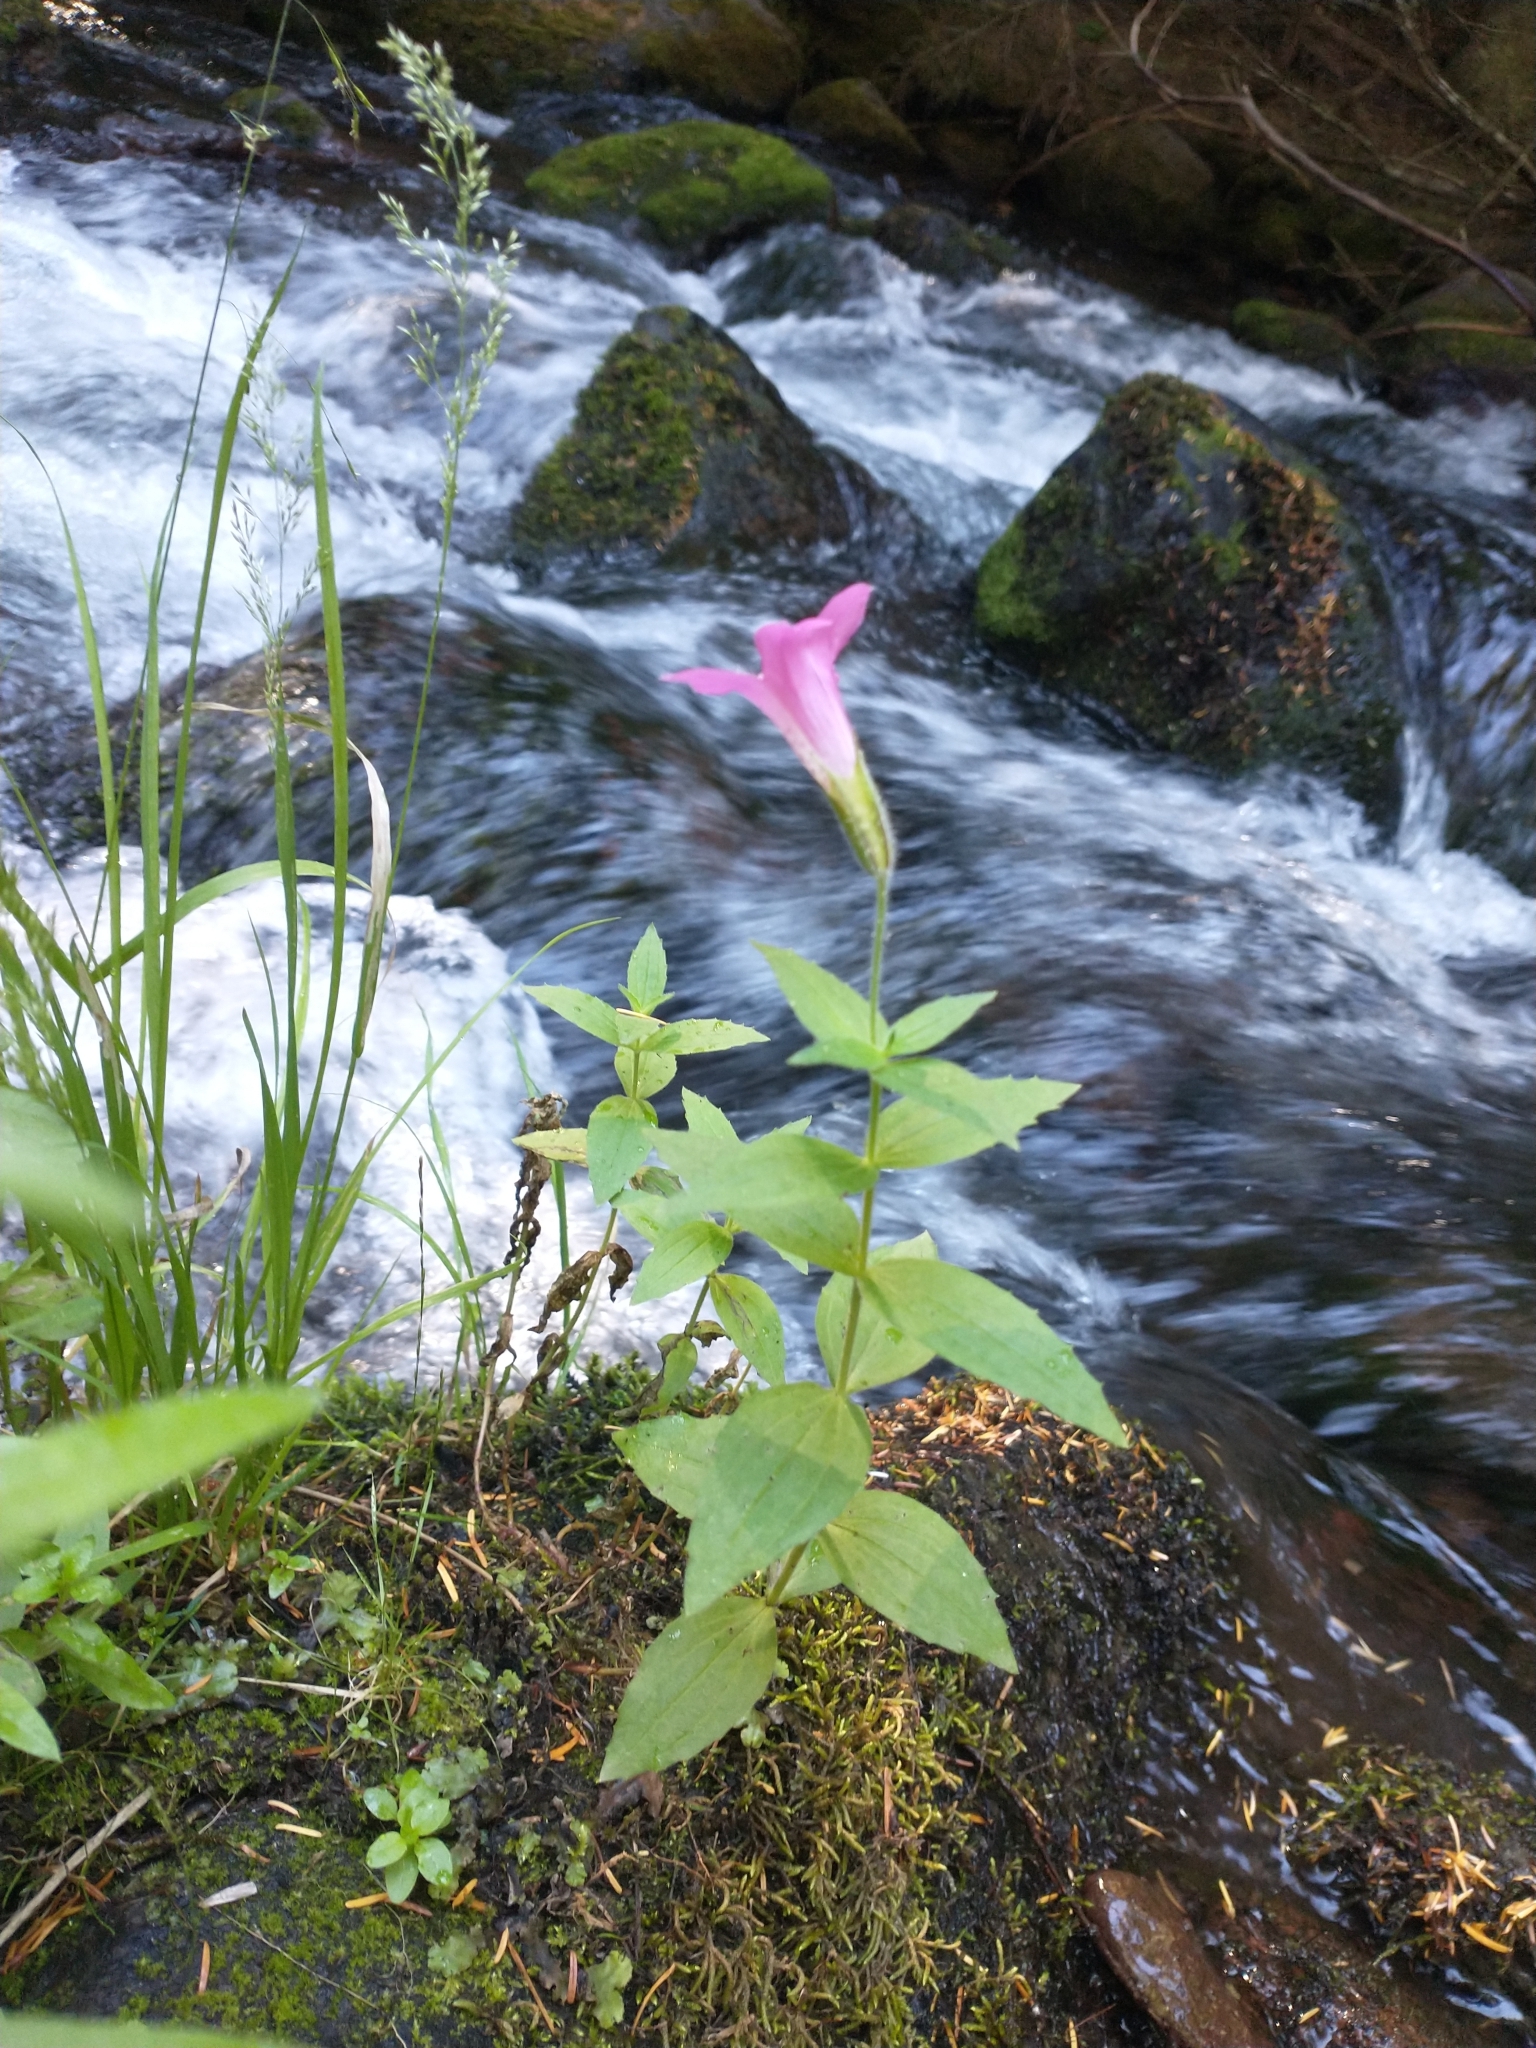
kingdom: Plantae
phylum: Tracheophyta
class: Magnoliopsida
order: Lamiales
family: Phrymaceae
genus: Erythranthe
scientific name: Erythranthe lewisii
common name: Lewis's monkey-flower
